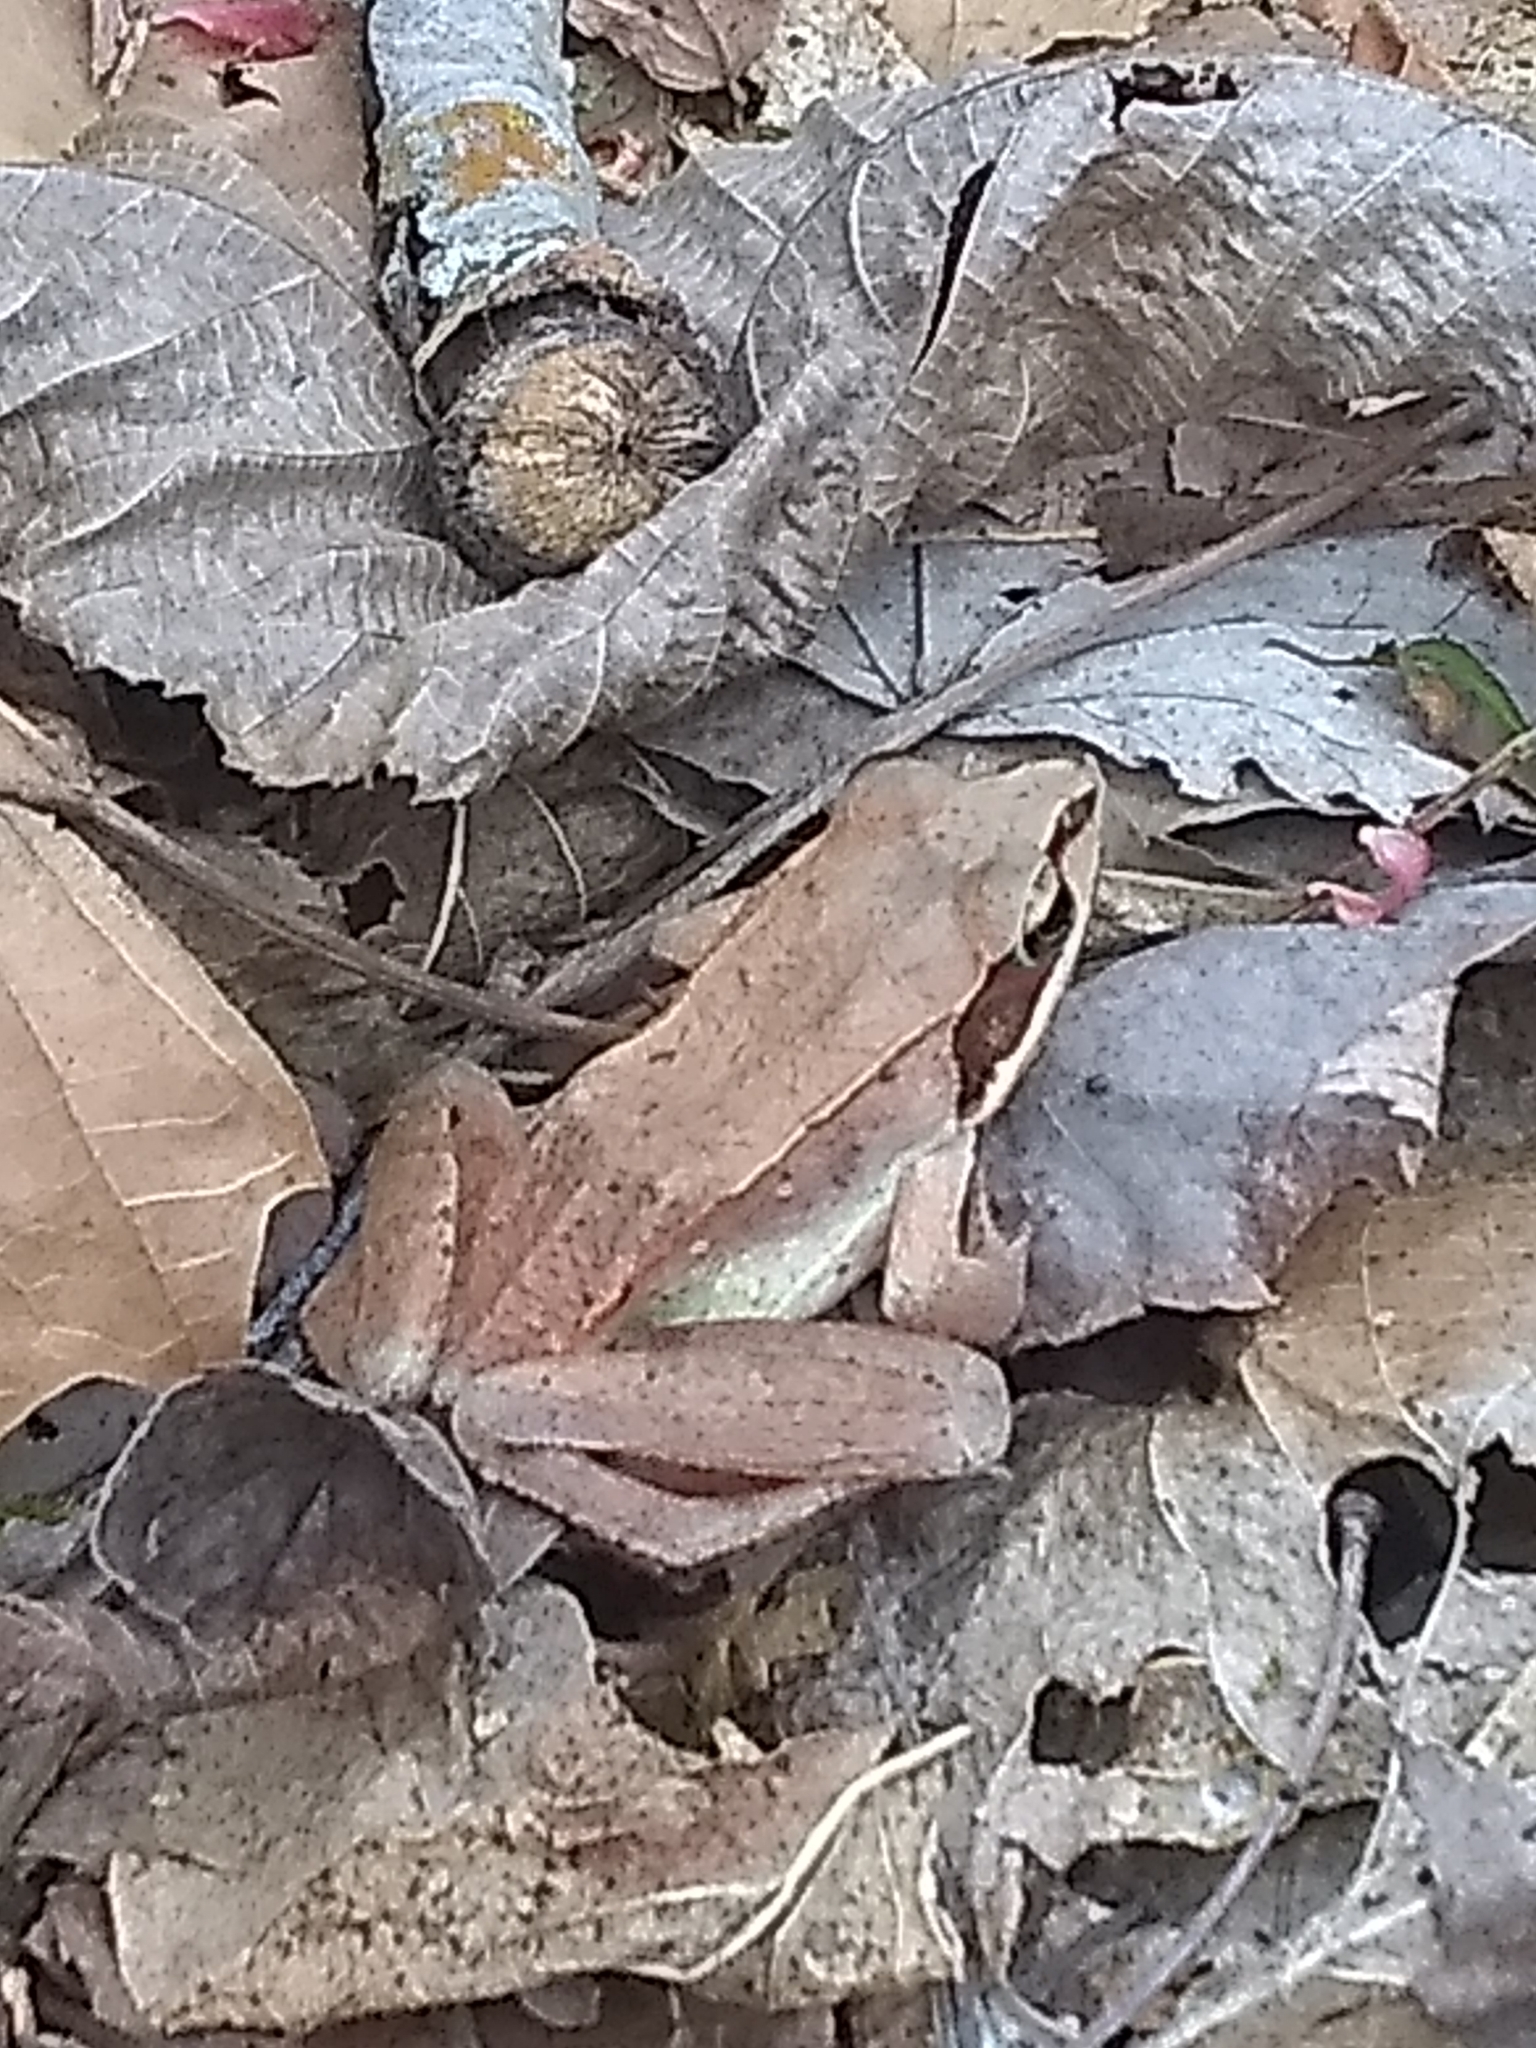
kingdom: Animalia
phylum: Chordata
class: Amphibia
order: Anura
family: Ranidae
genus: Lithobates
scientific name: Lithobates sylvaticus
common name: Wood frog
